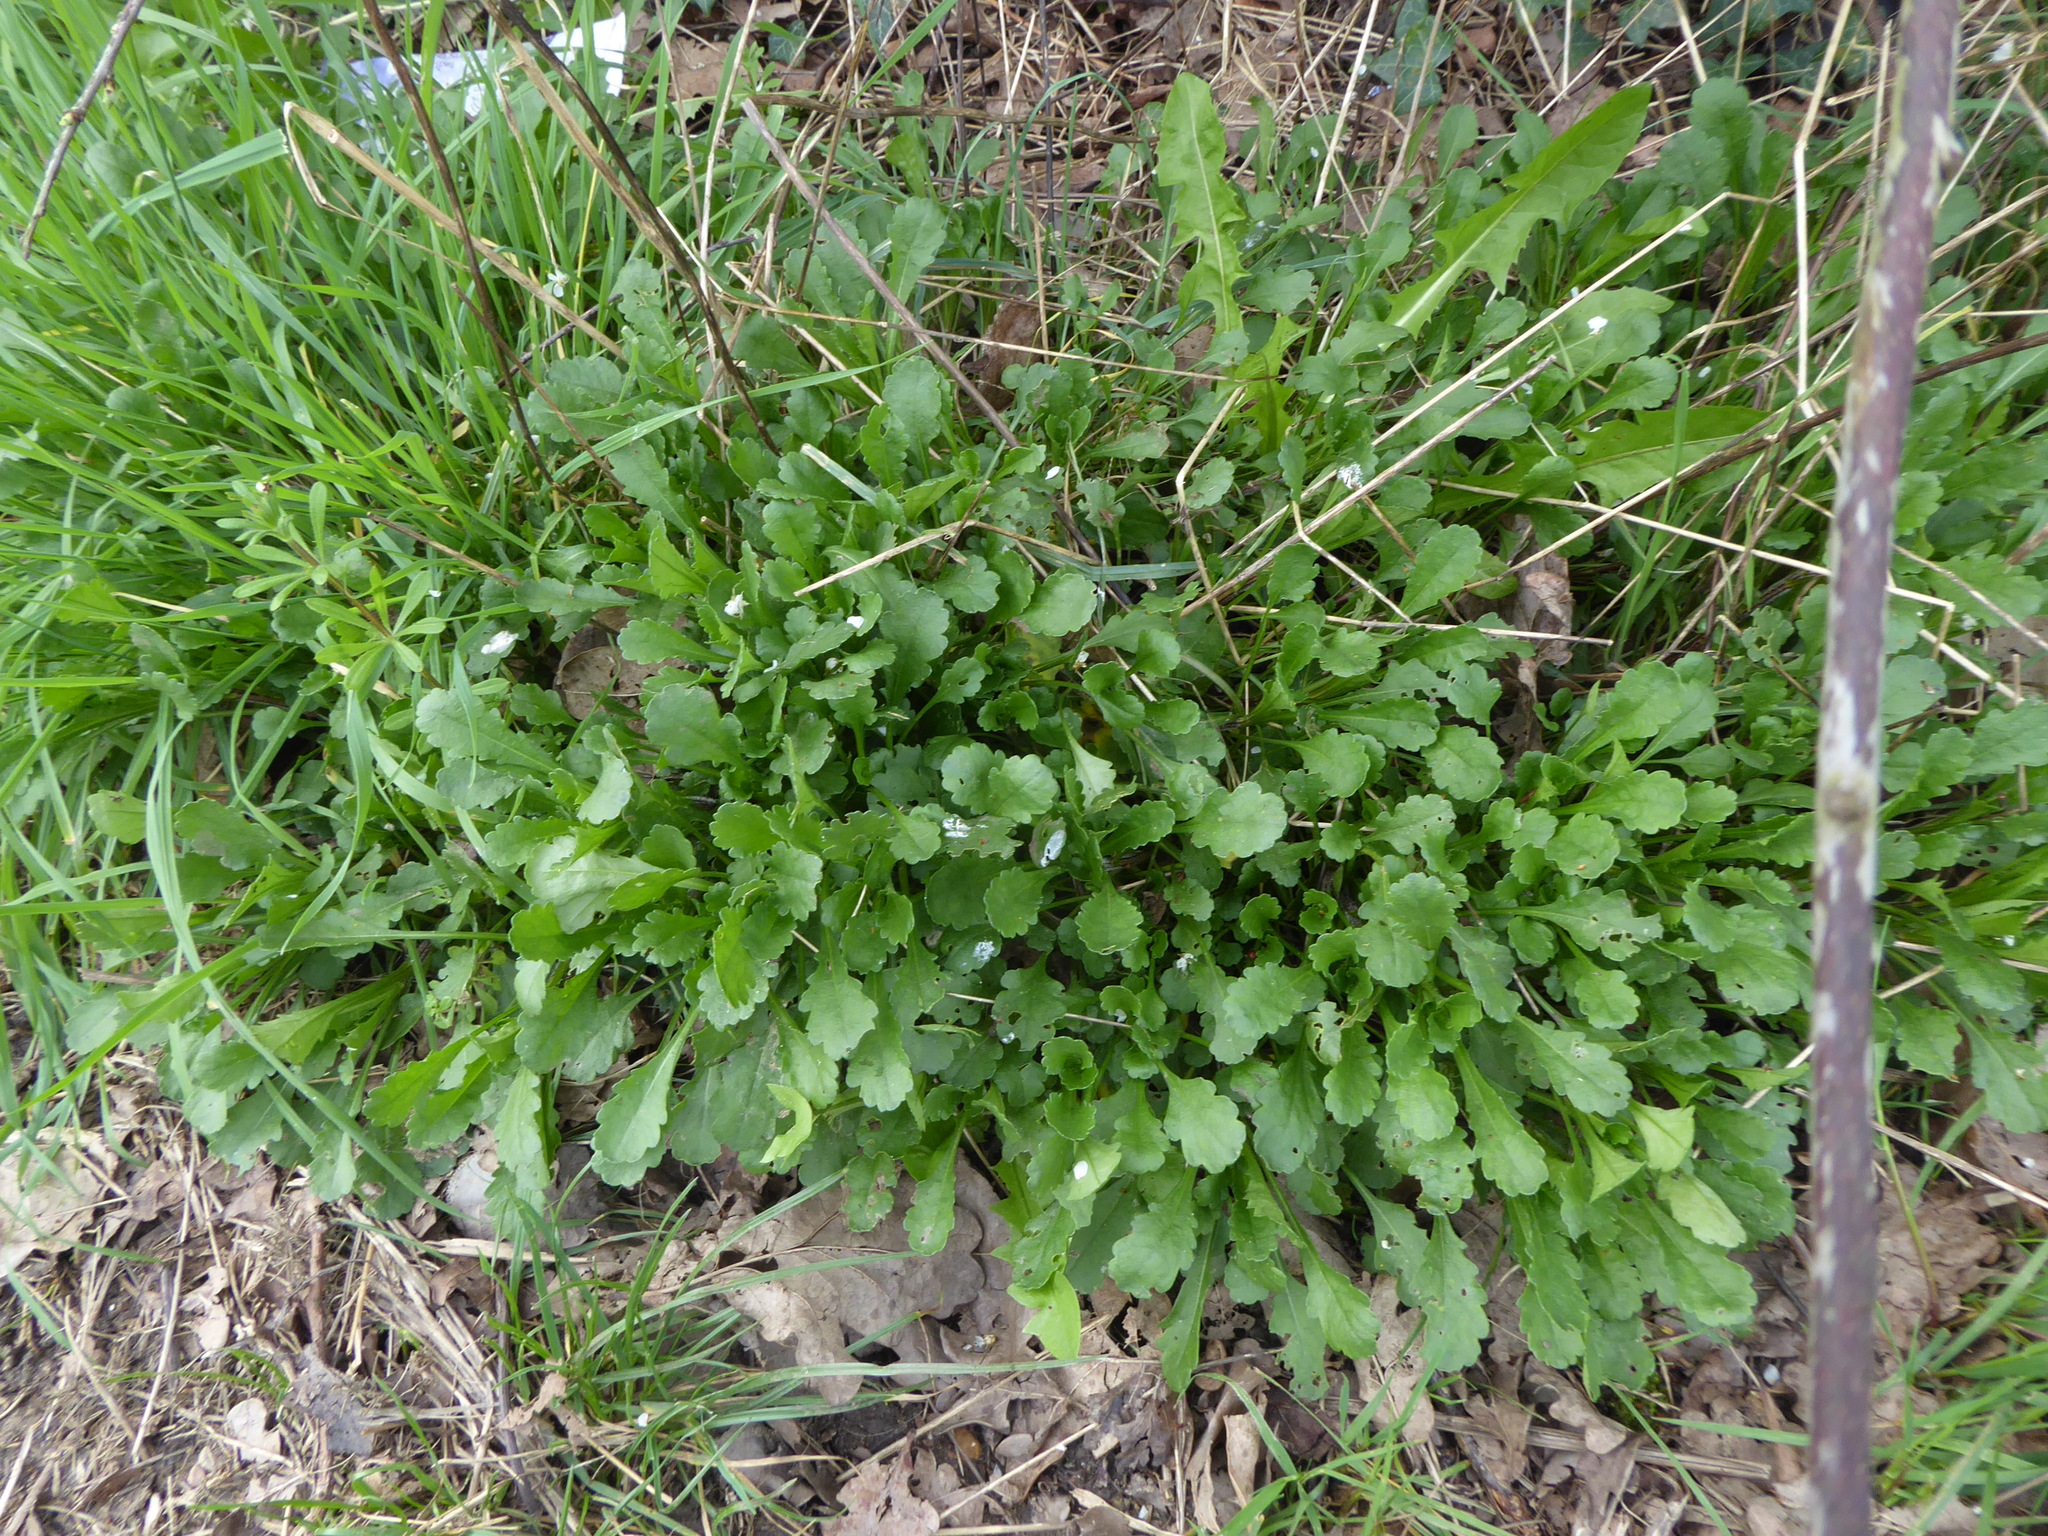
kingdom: Plantae
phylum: Tracheophyta
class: Magnoliopsida
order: Asterales
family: Asteraceae
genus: Leucanthemum
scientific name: Leucanthemum vulgare
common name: Oxeye daisy
